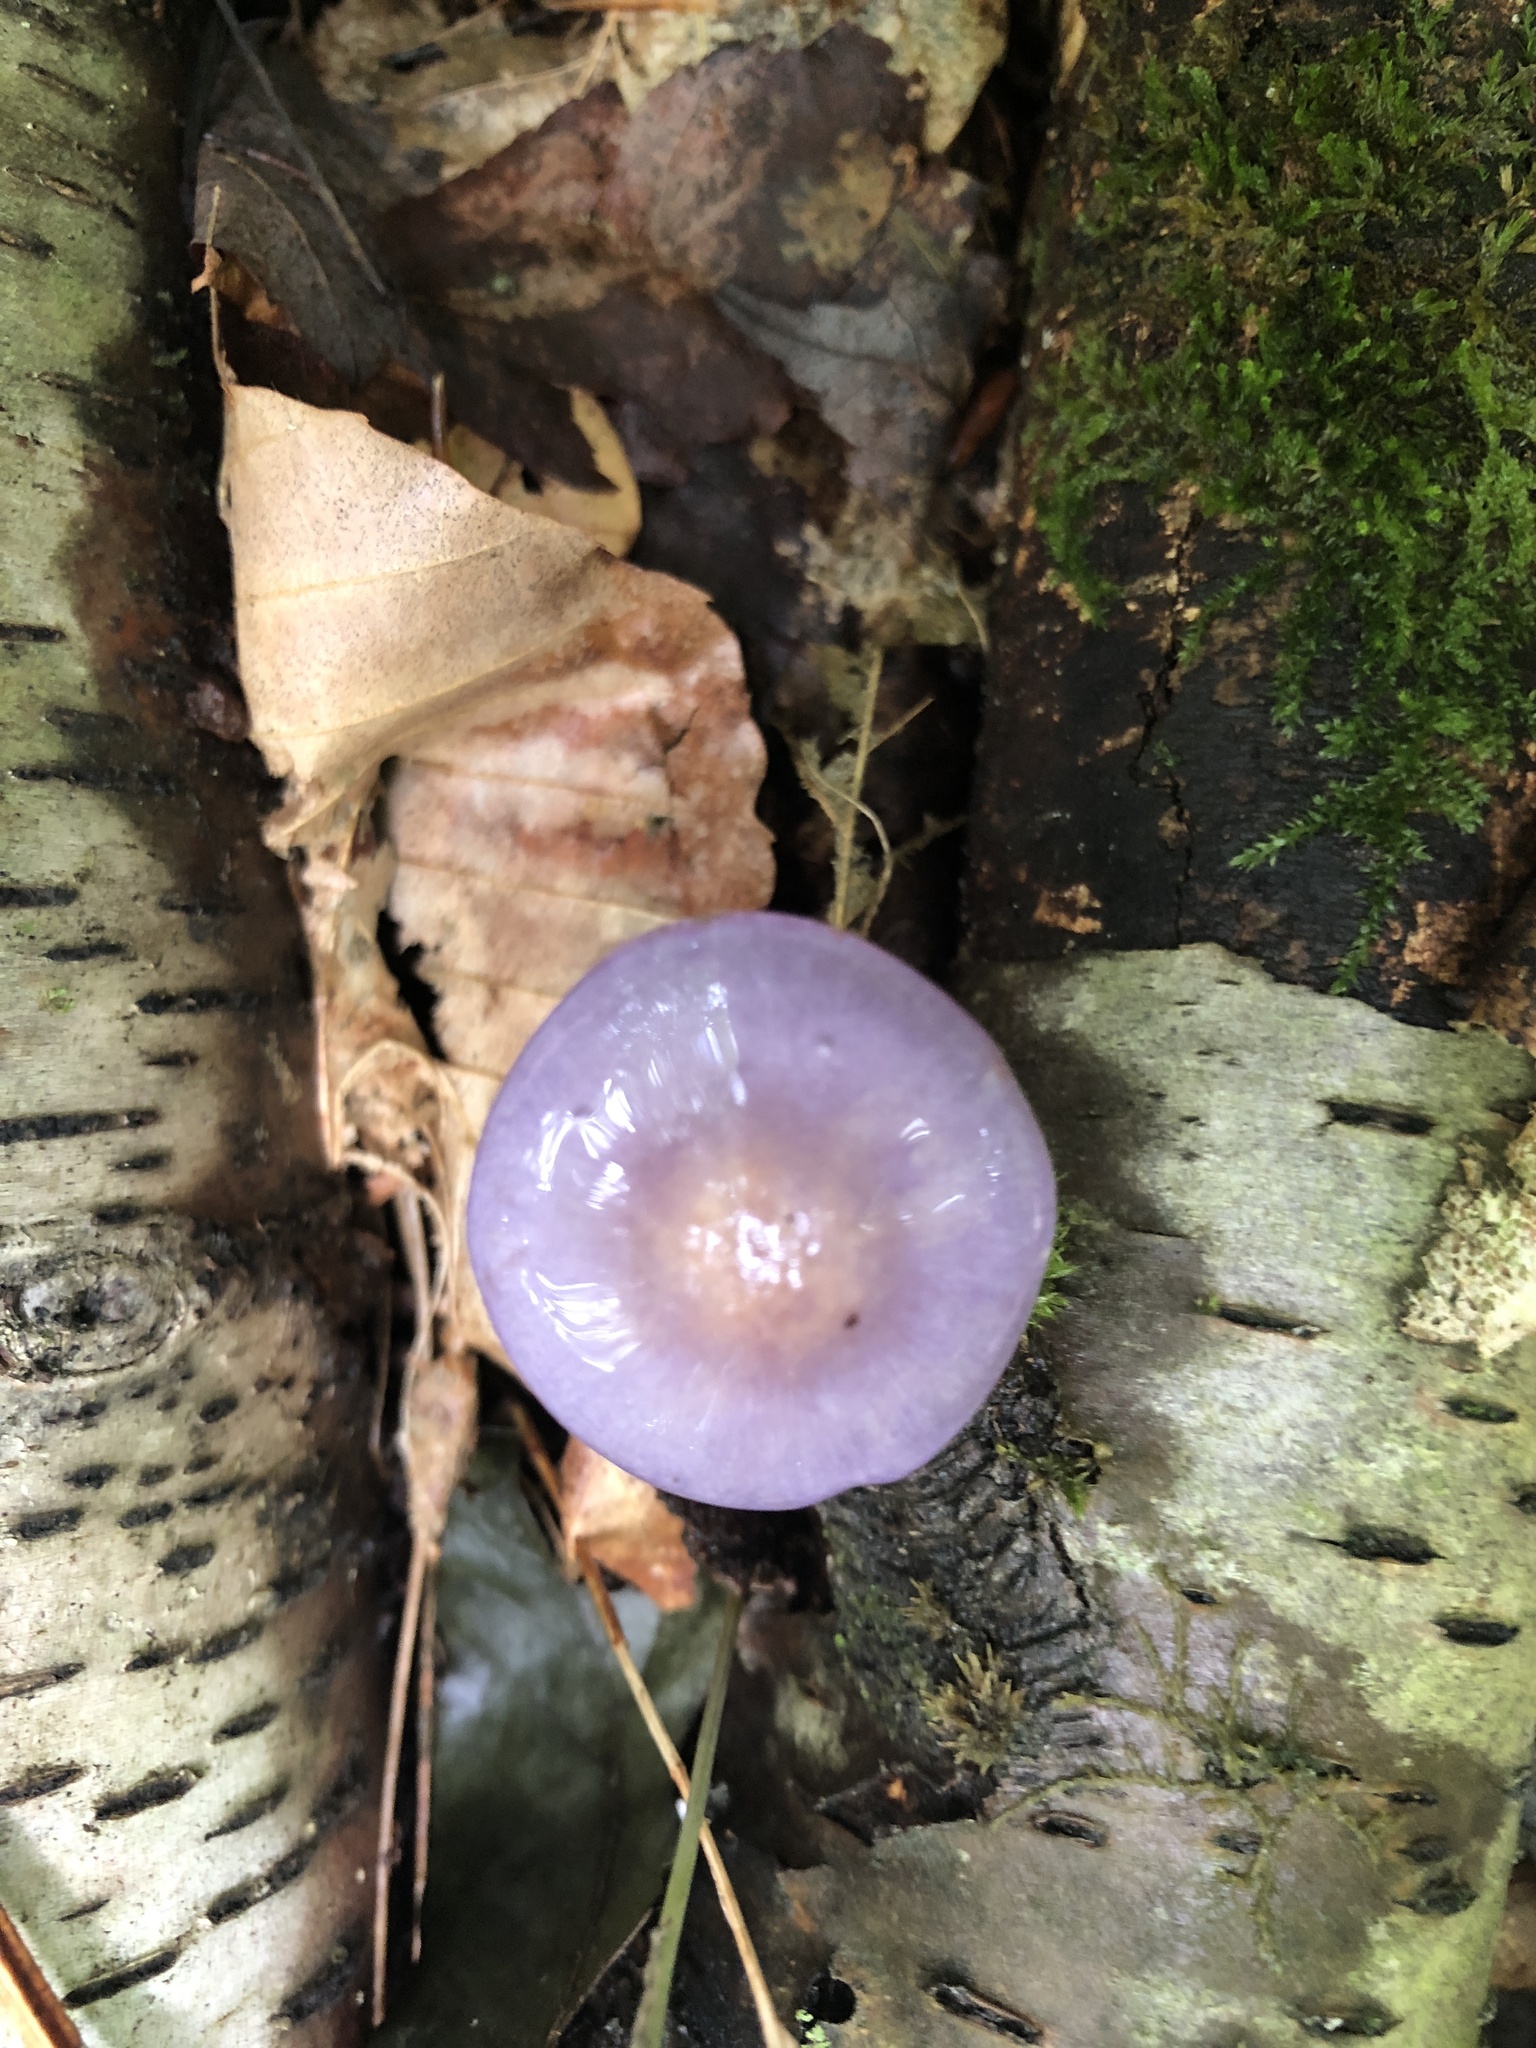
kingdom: Fungi
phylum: Basidiomycota
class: Agaricomycetes
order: Agaricales
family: Cortinariaceae
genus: Cortinarius
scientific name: Cortinarius iodes
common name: Viscid violet cort
